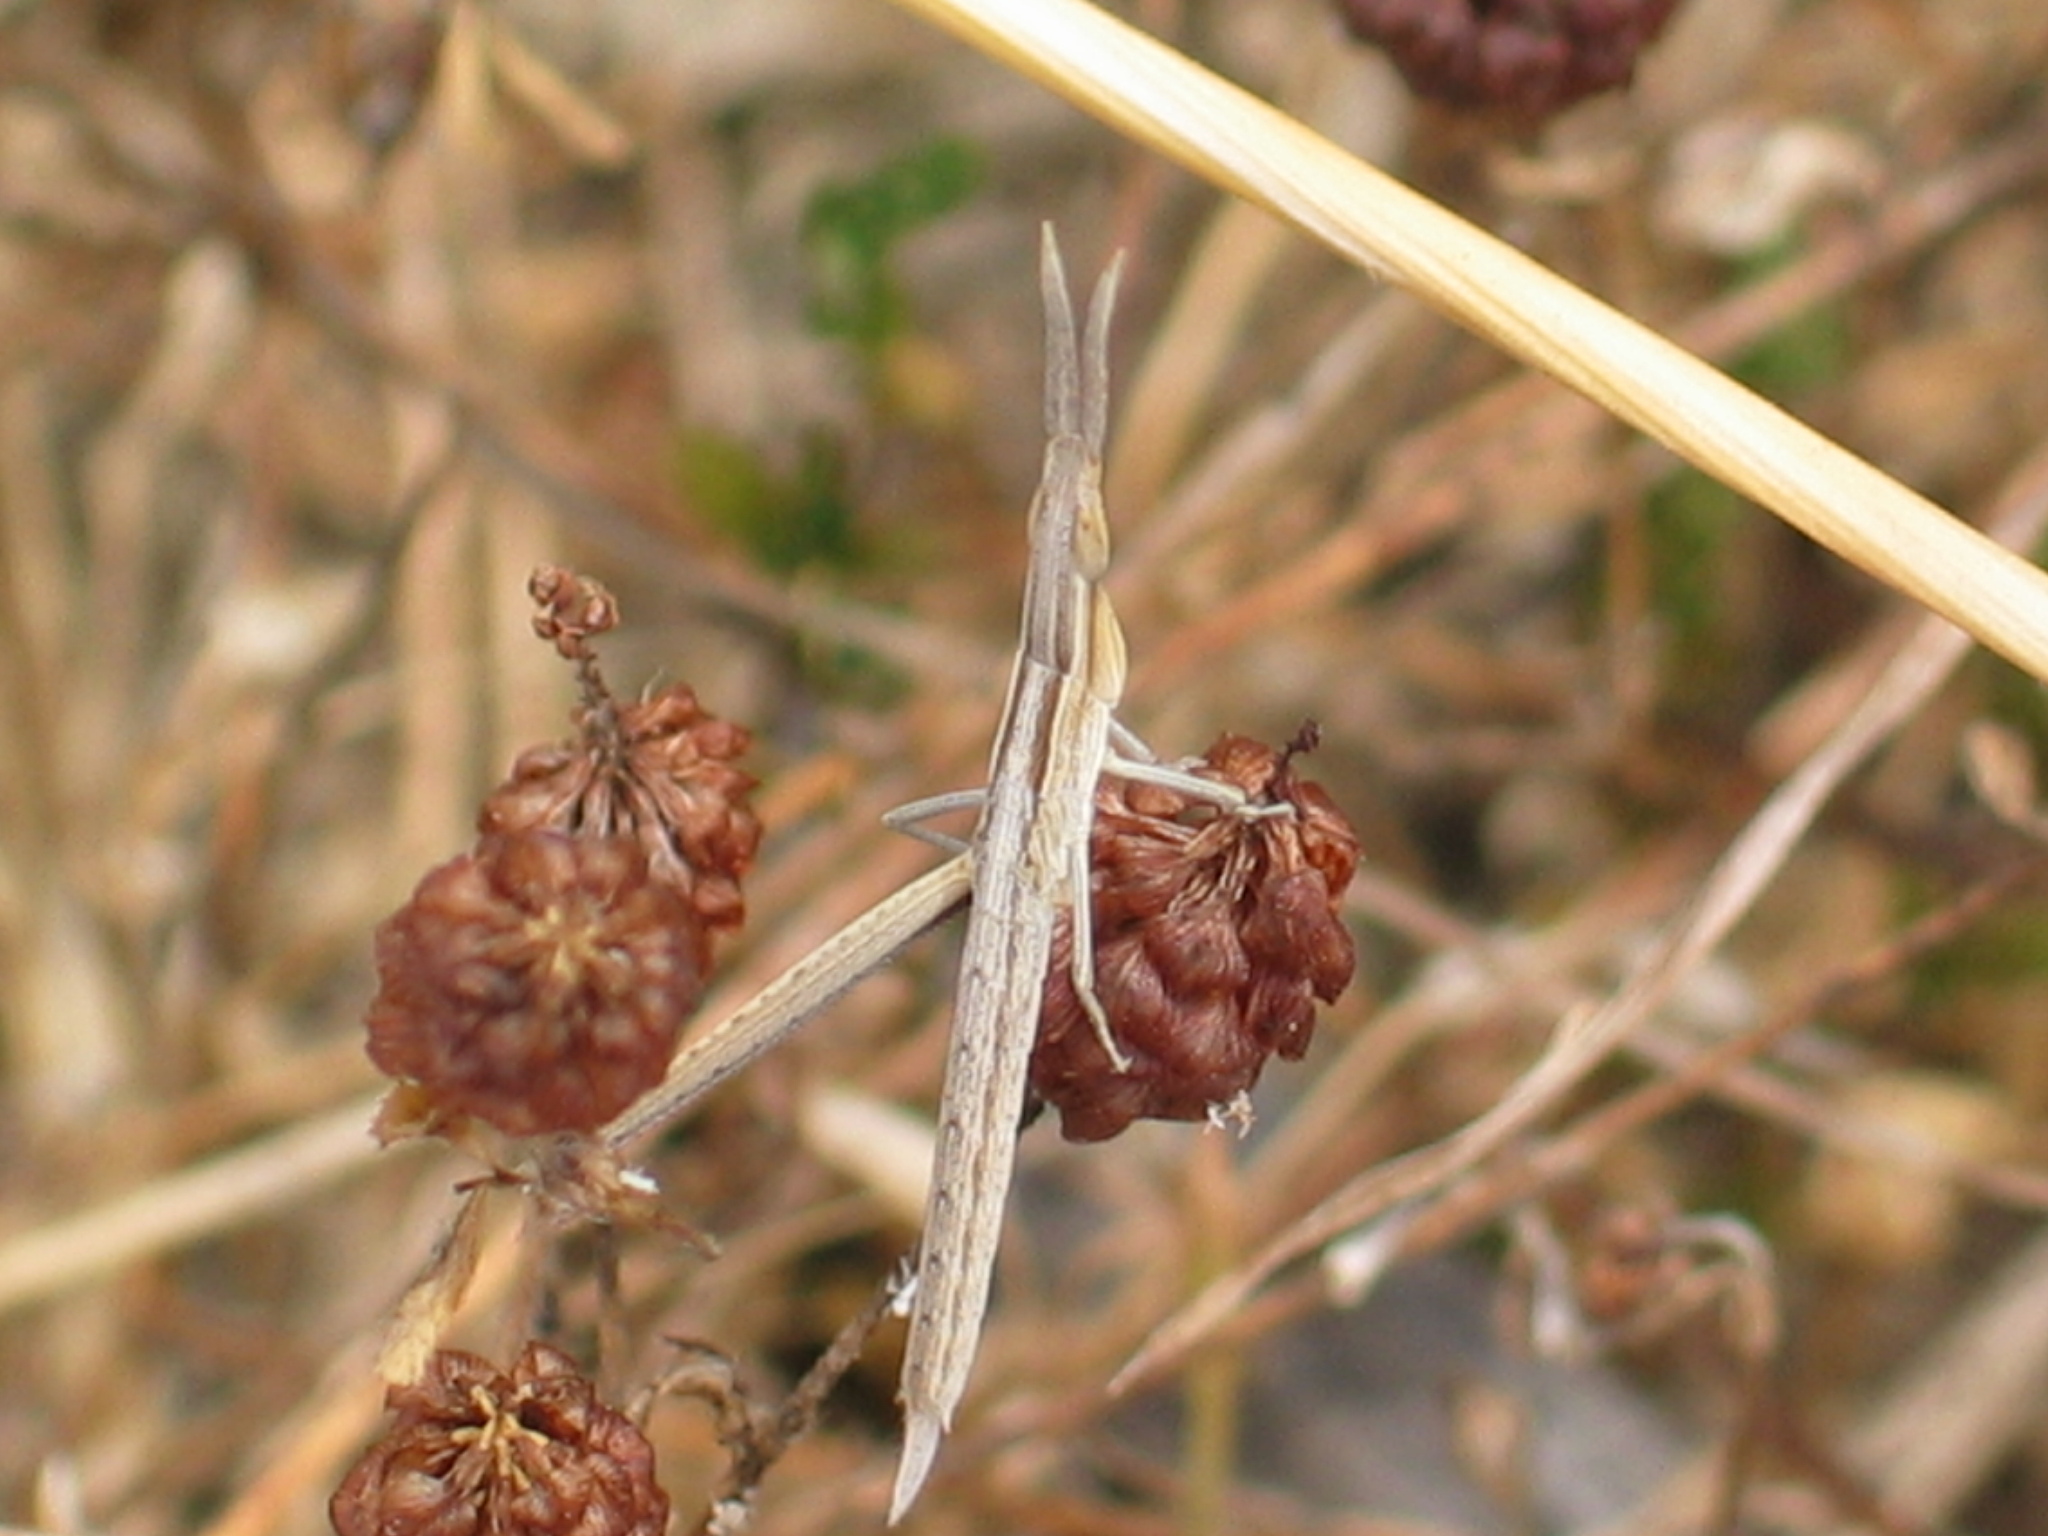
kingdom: Animalia
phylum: Arthropoda
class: Insecta
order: Orthoptera
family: Acrididae
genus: Acrida
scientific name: Acrida ungarica
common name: Common cone-headed grasshopper
